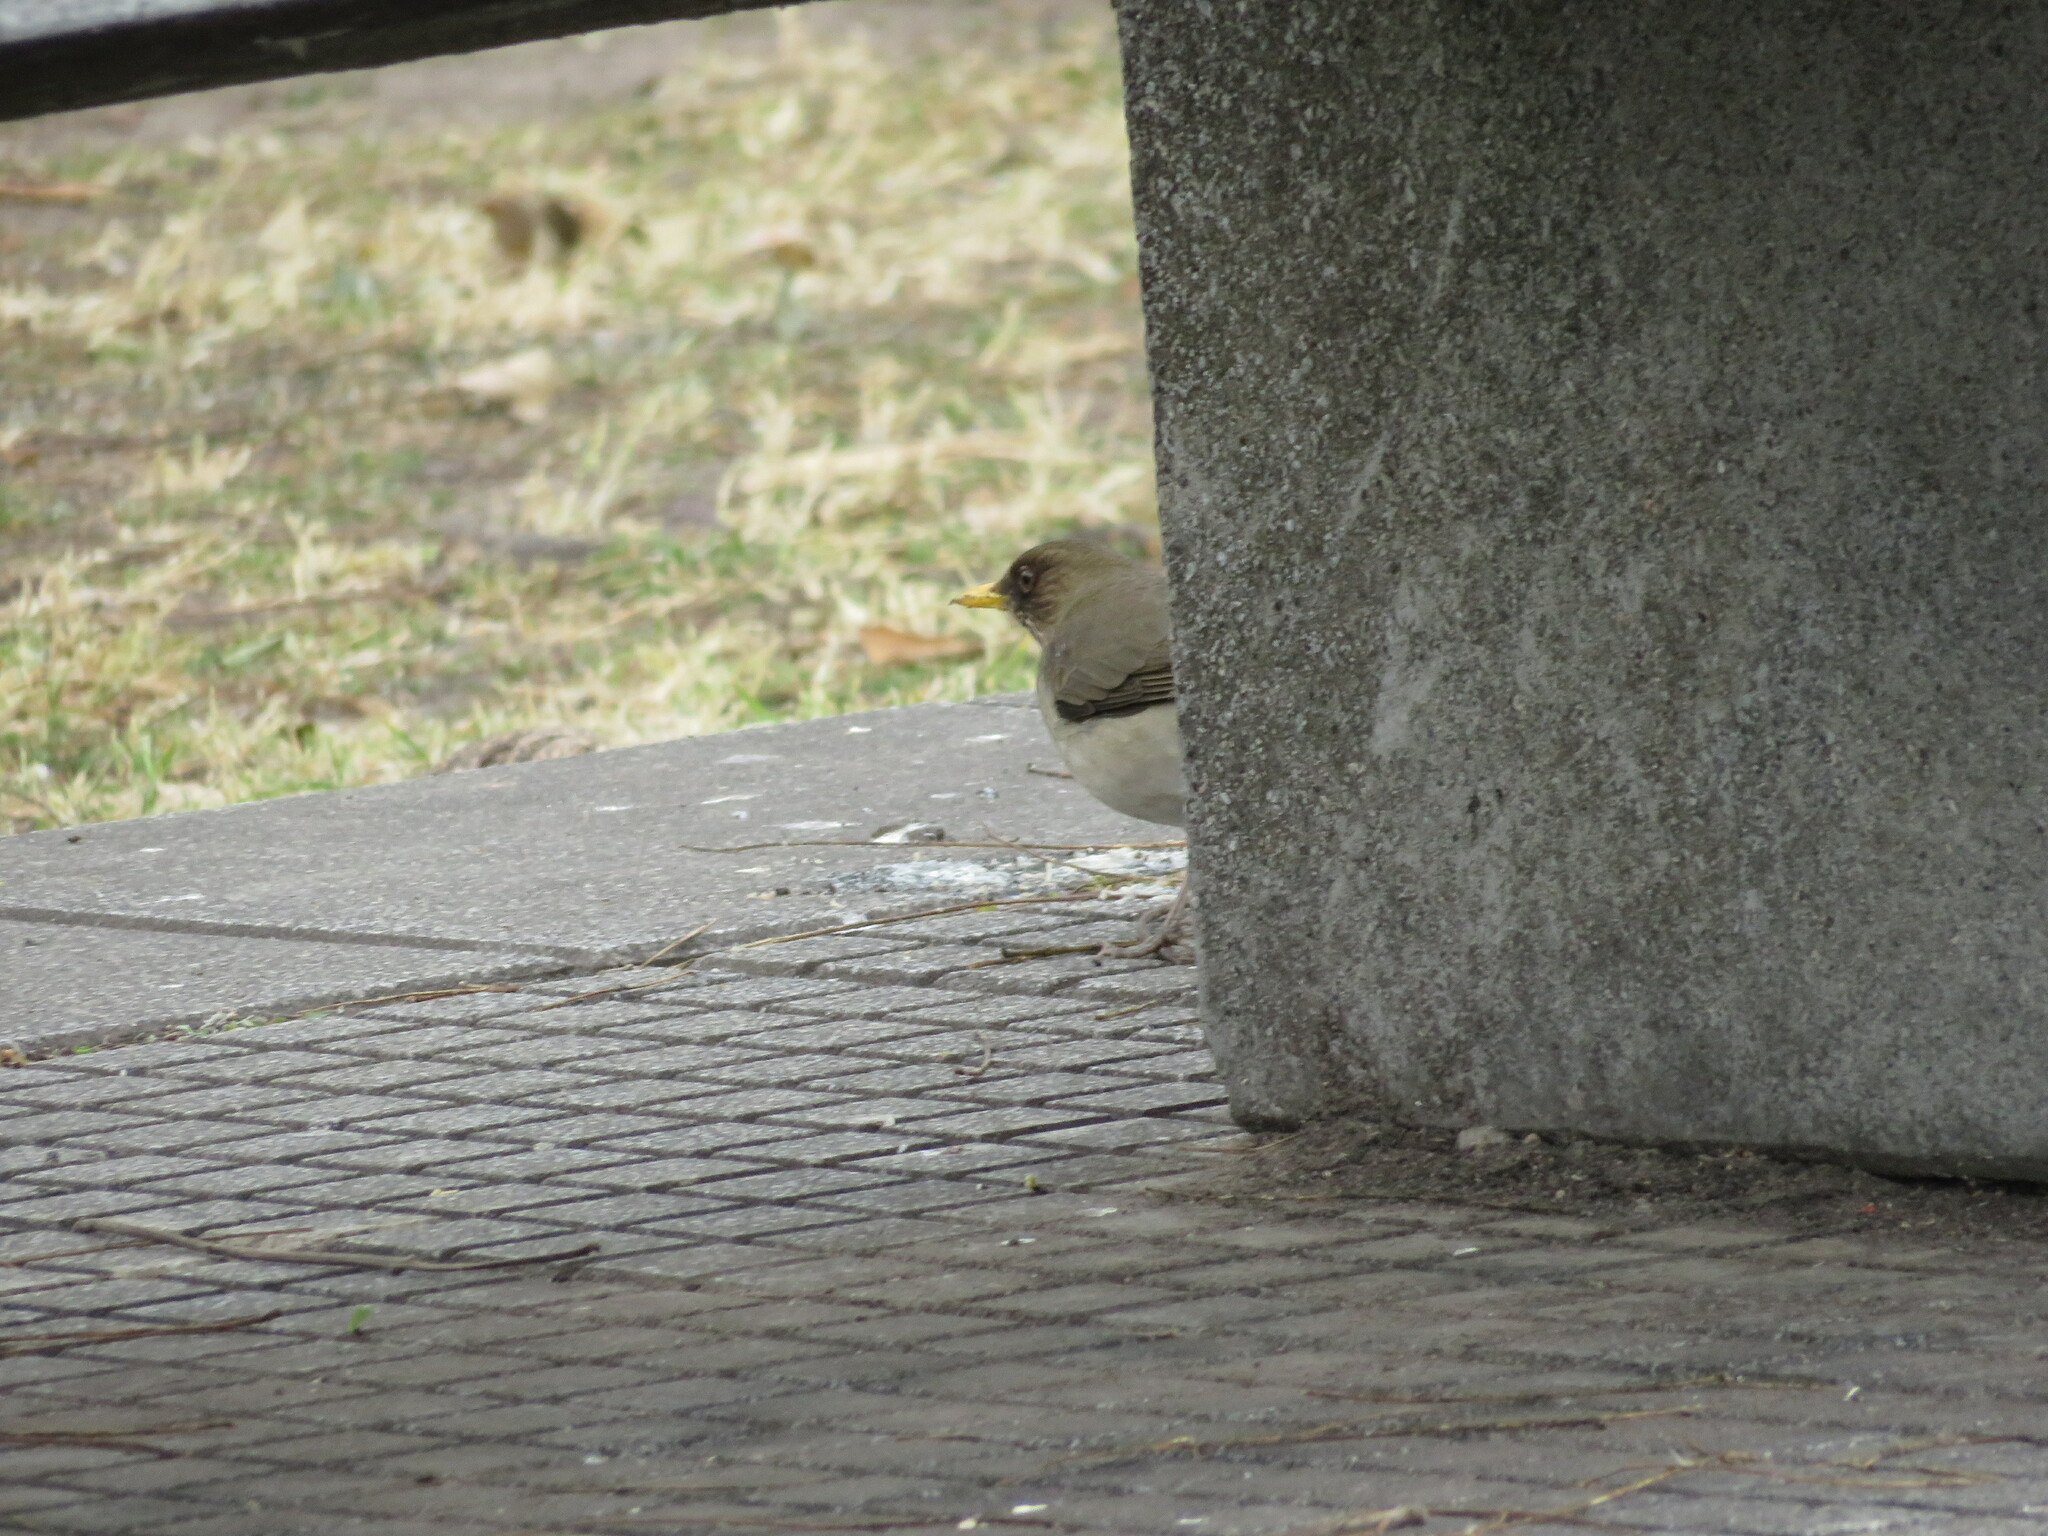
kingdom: Animalia
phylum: Chordata
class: Aves
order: Passeriformes
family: Turdidae
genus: Turdus
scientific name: Turdus amaurochalinus
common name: Creamy-bellied thrush
